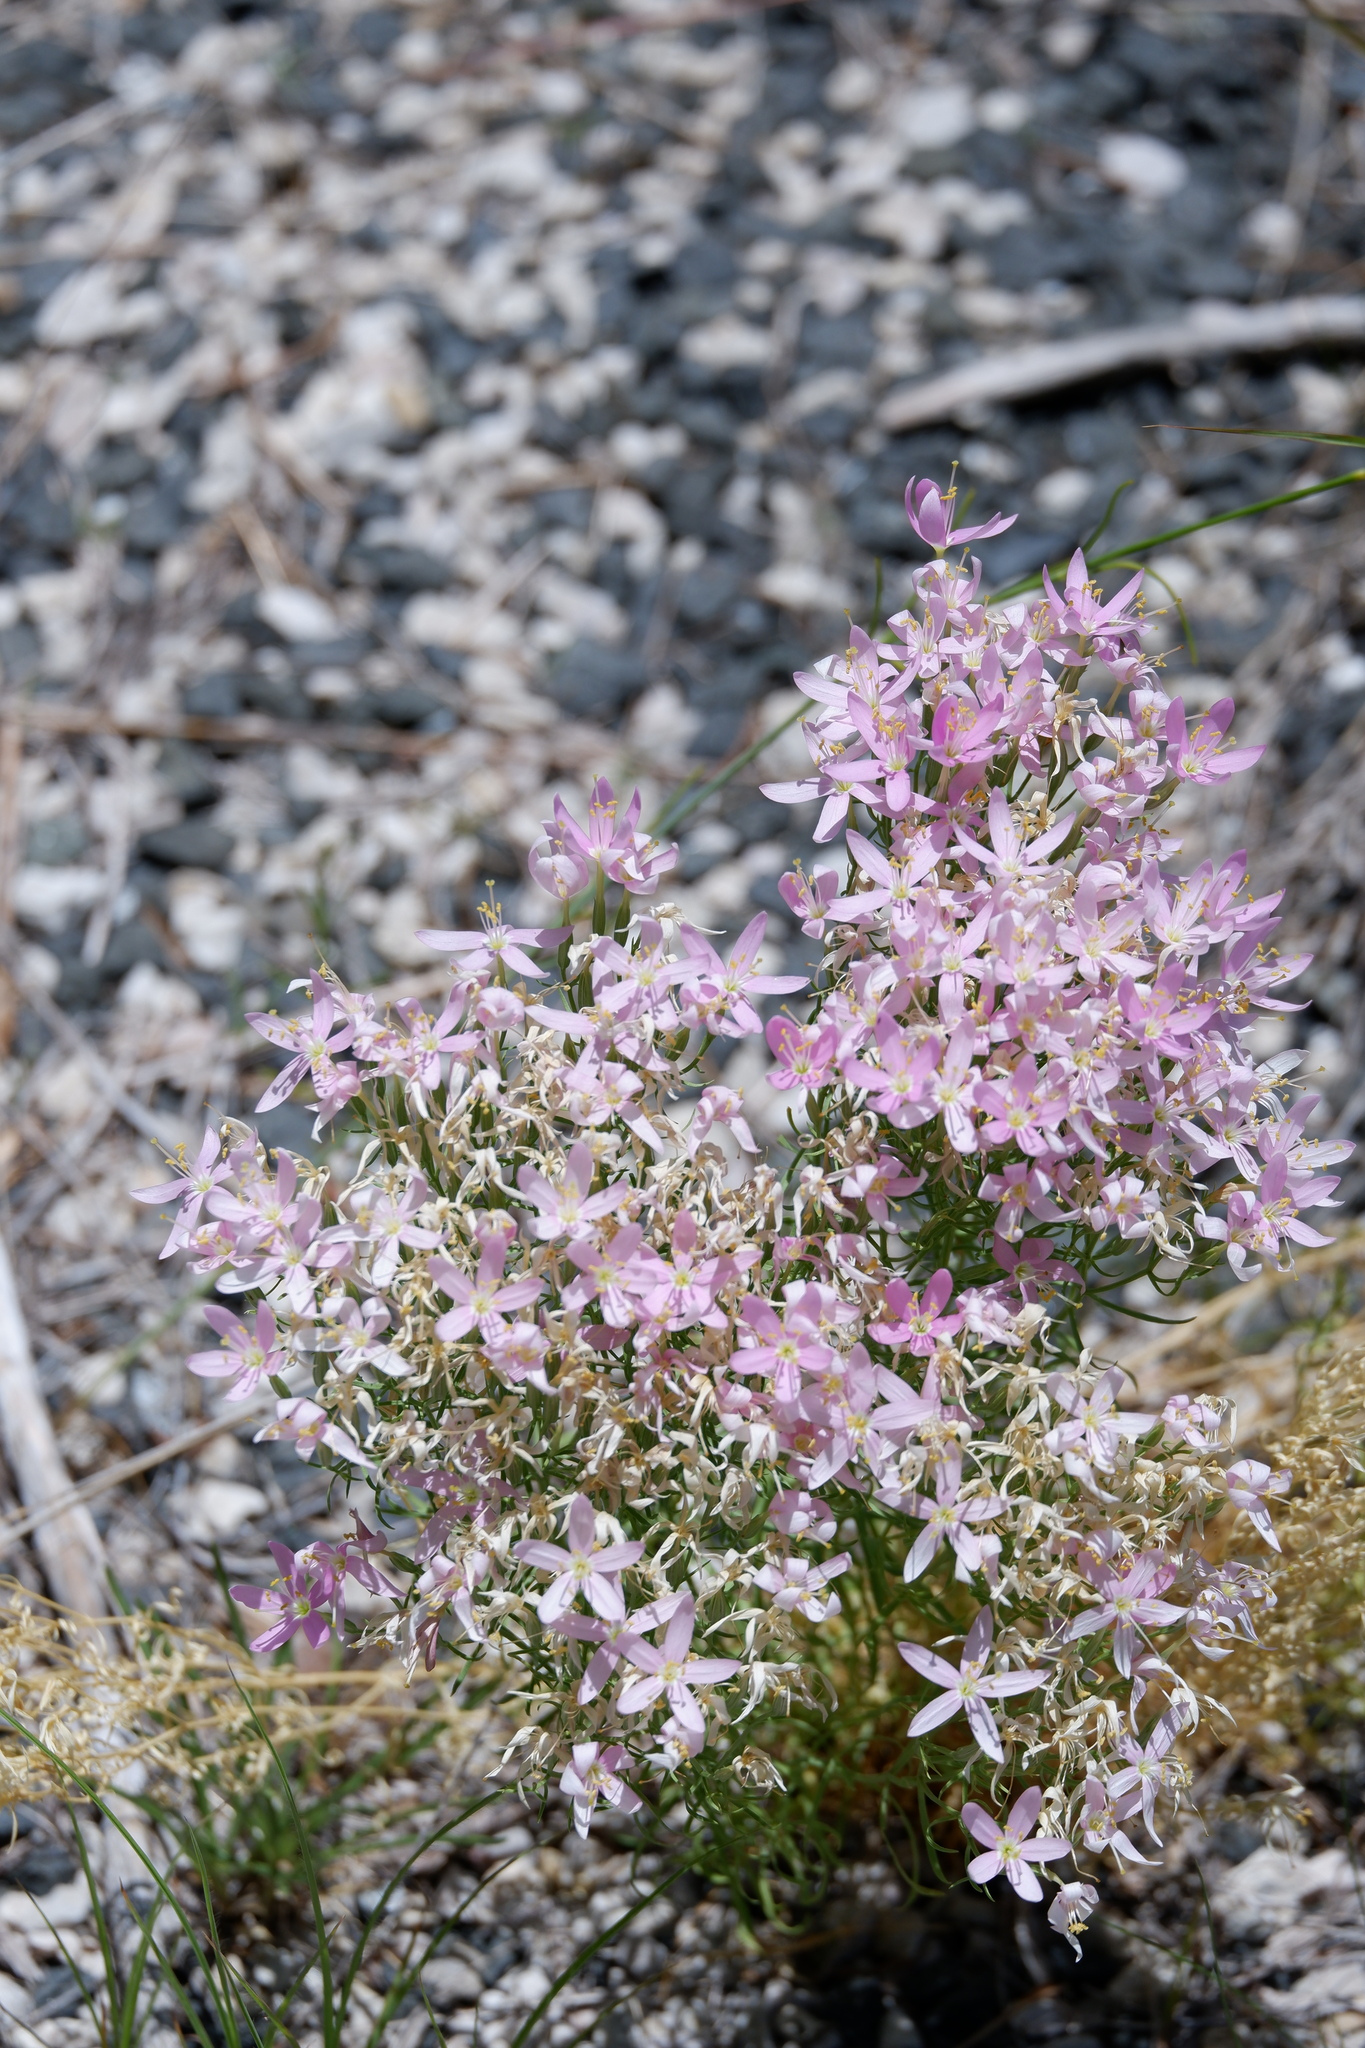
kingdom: Plantae
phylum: Tracheophyta
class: Magnoliopsida
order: Gentianales
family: Gentianaceae
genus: Zeltnera
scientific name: Zeltnera beyrichii
